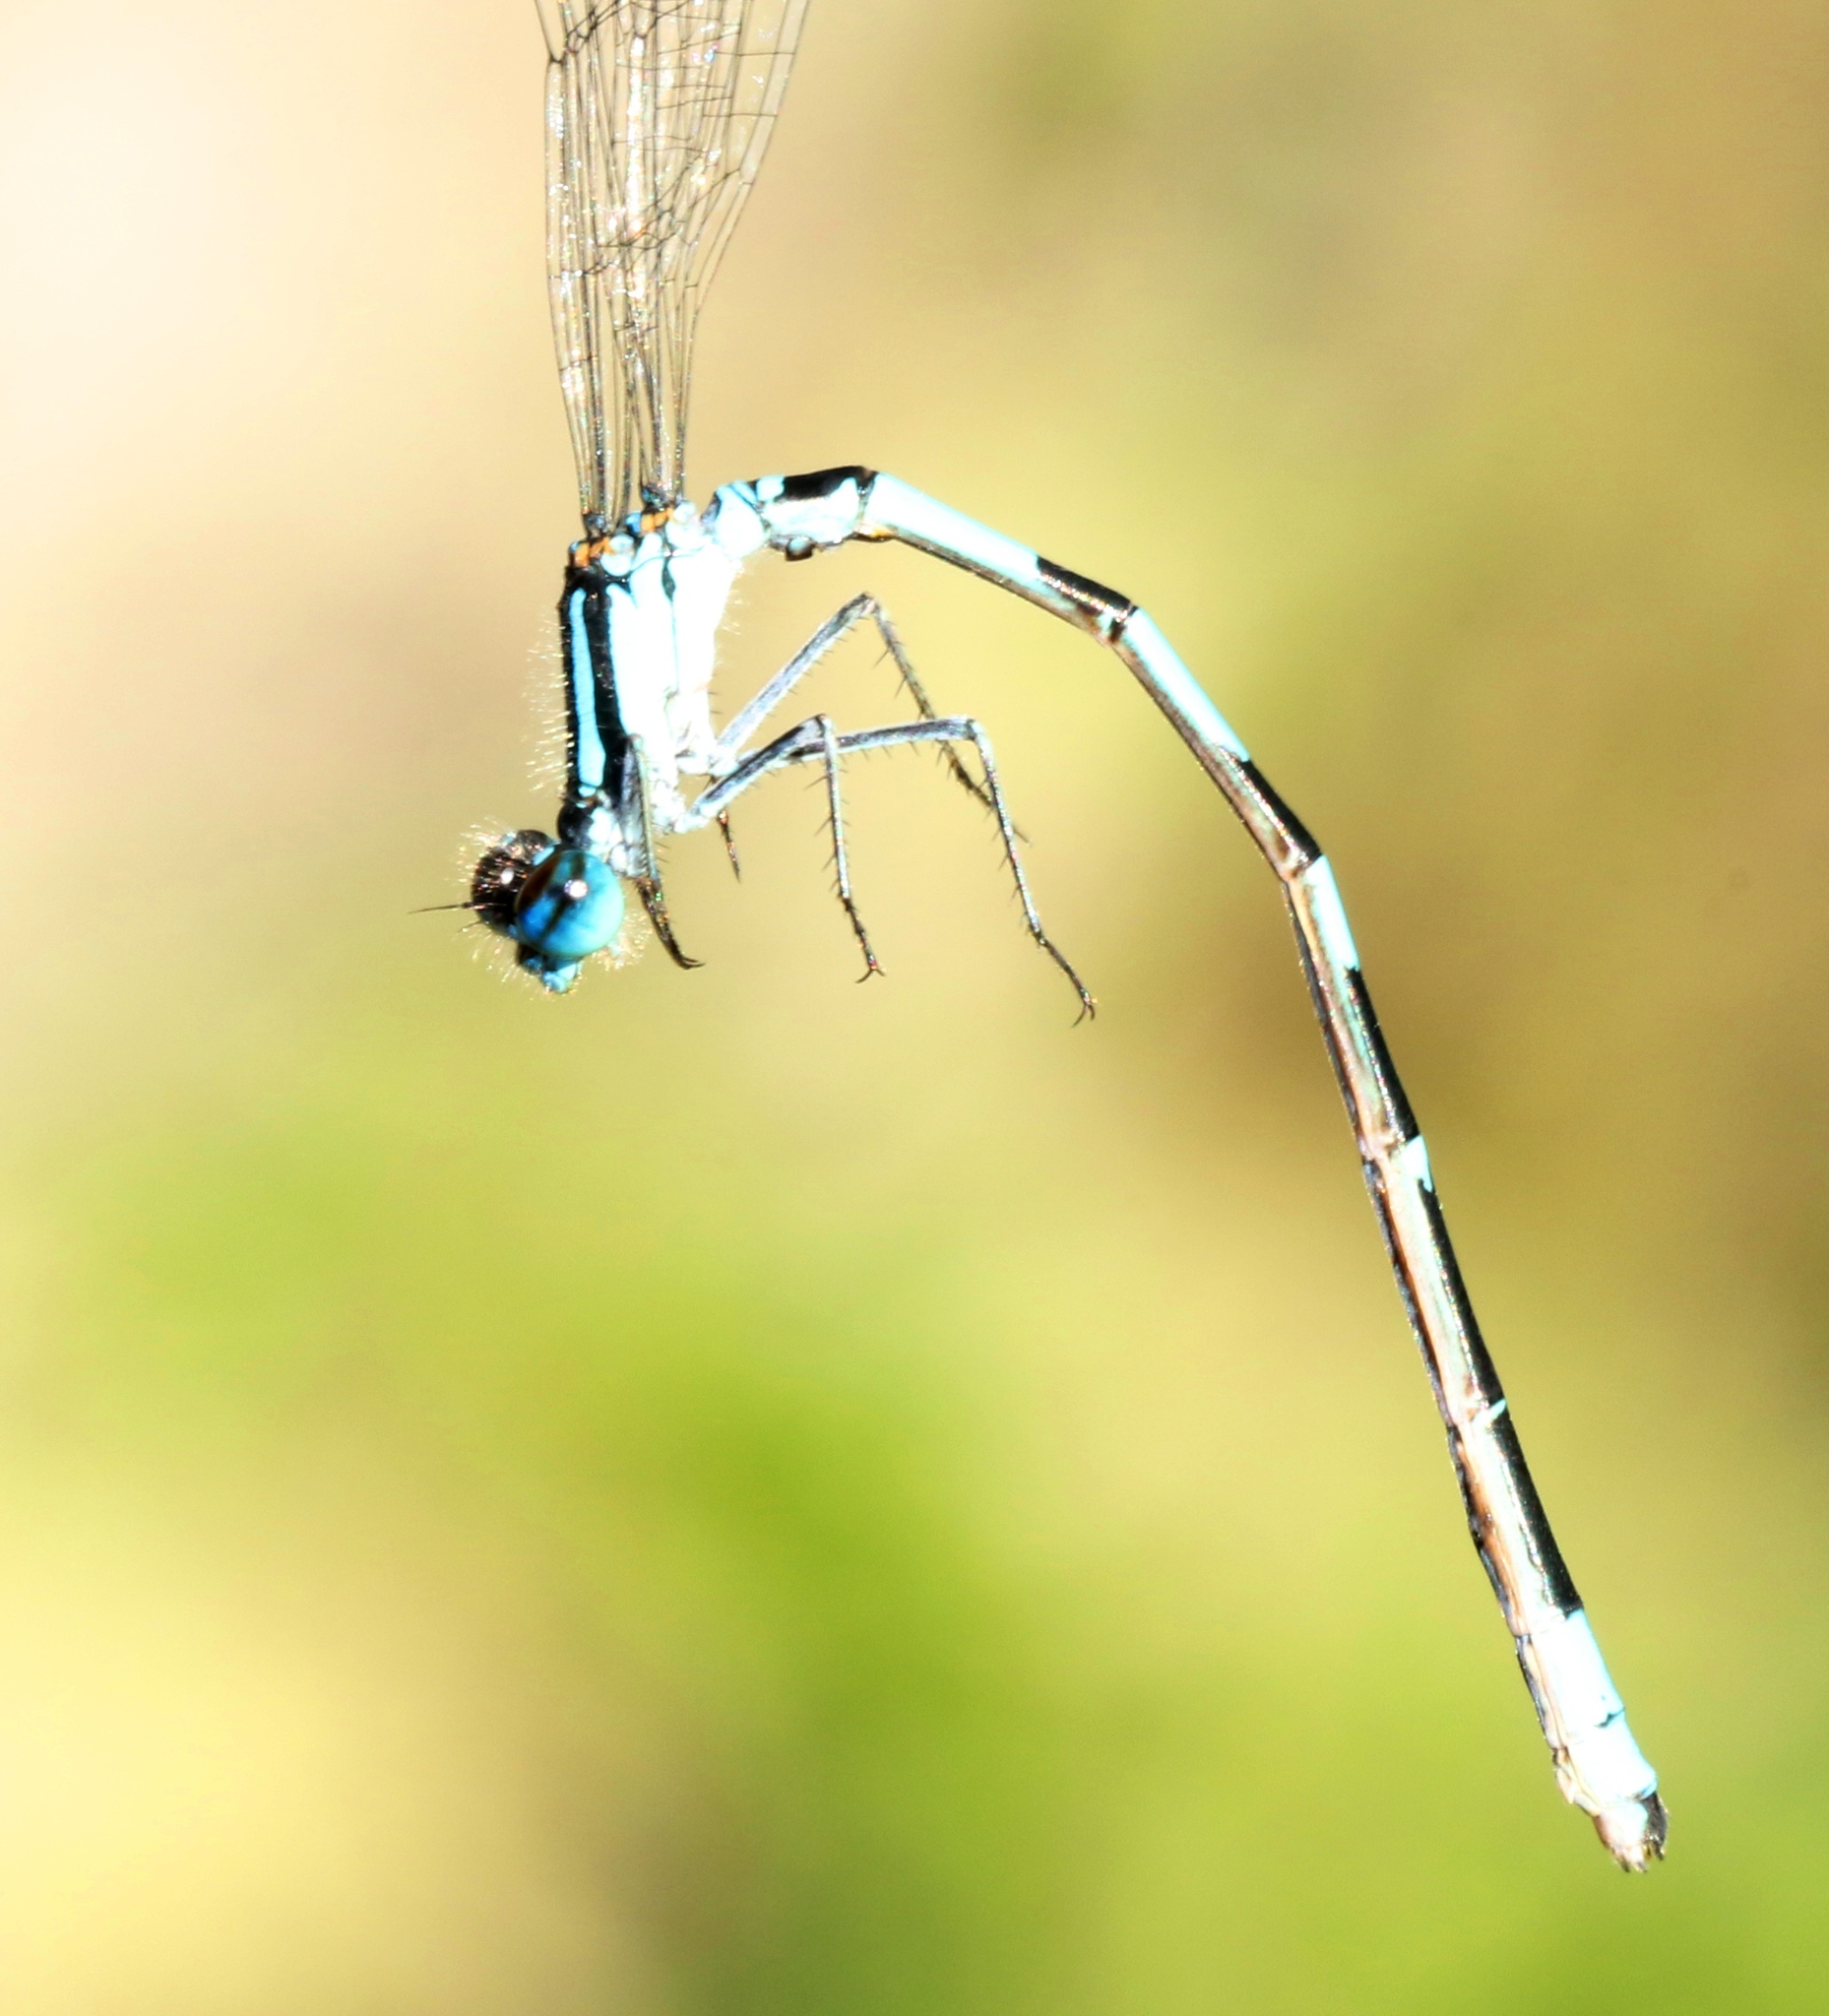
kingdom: Animalia
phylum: Arthropoda
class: Insecta
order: Odonata
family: Coenagrionidae
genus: Enallagma
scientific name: Enallagma hageni
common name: Hagen's bluet
